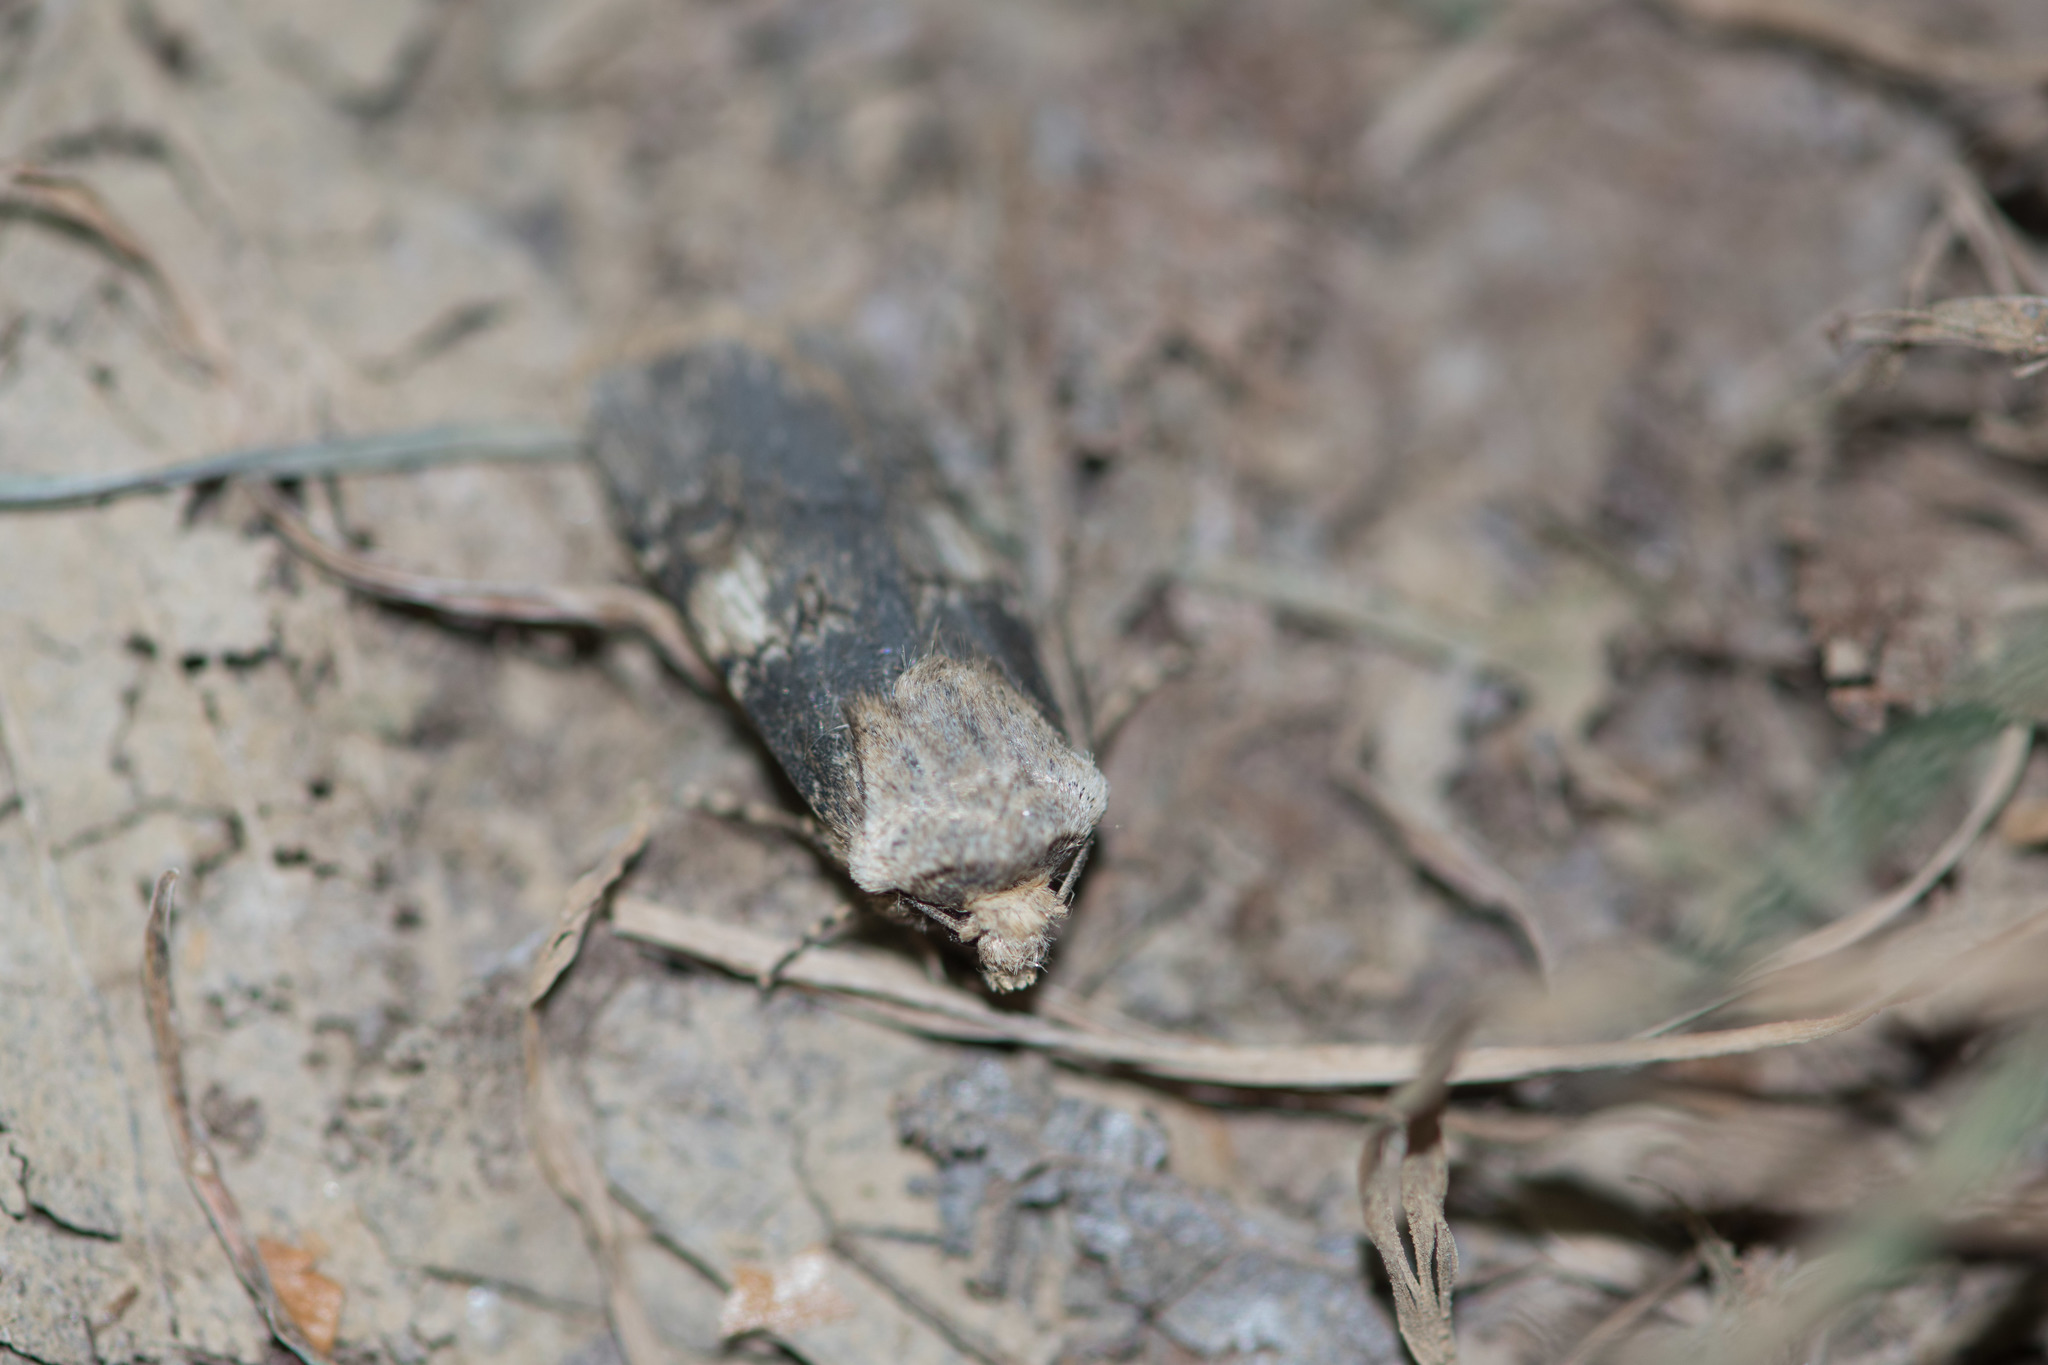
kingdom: Animalia
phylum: Arthropoda
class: Insecta
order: Lepidoptera
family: Noctuidae
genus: Agrotis
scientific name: Agrotis puta
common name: Shuttle-shaped dart
